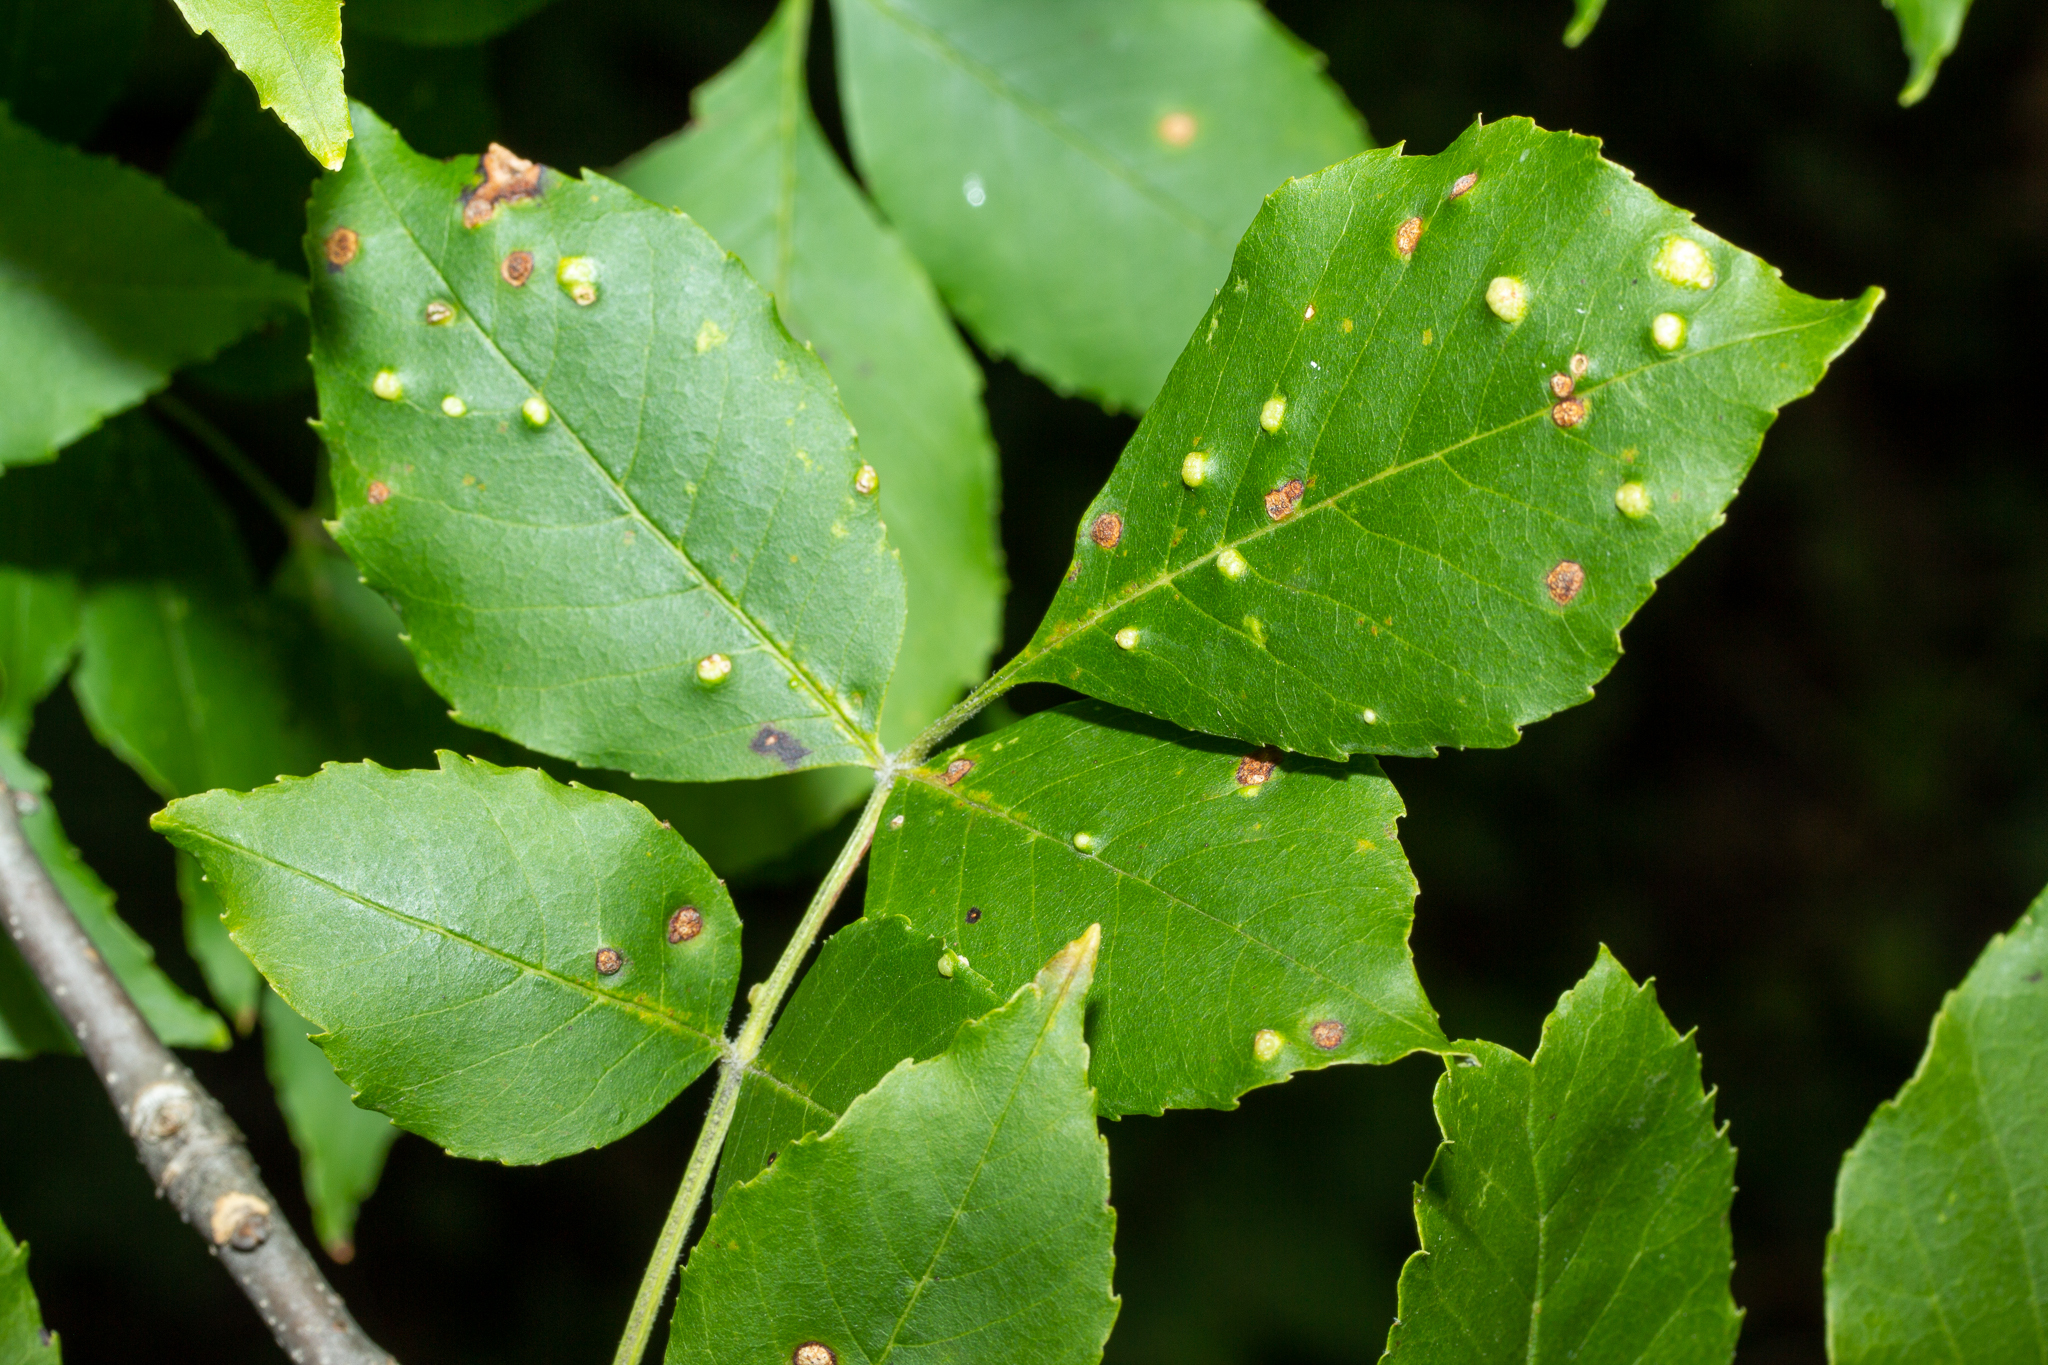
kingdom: Animalia
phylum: Arthropoda
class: Arachnida
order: Trombidiformes
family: Eriophyidae
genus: Aceria
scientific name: Aceria fraxinicola
